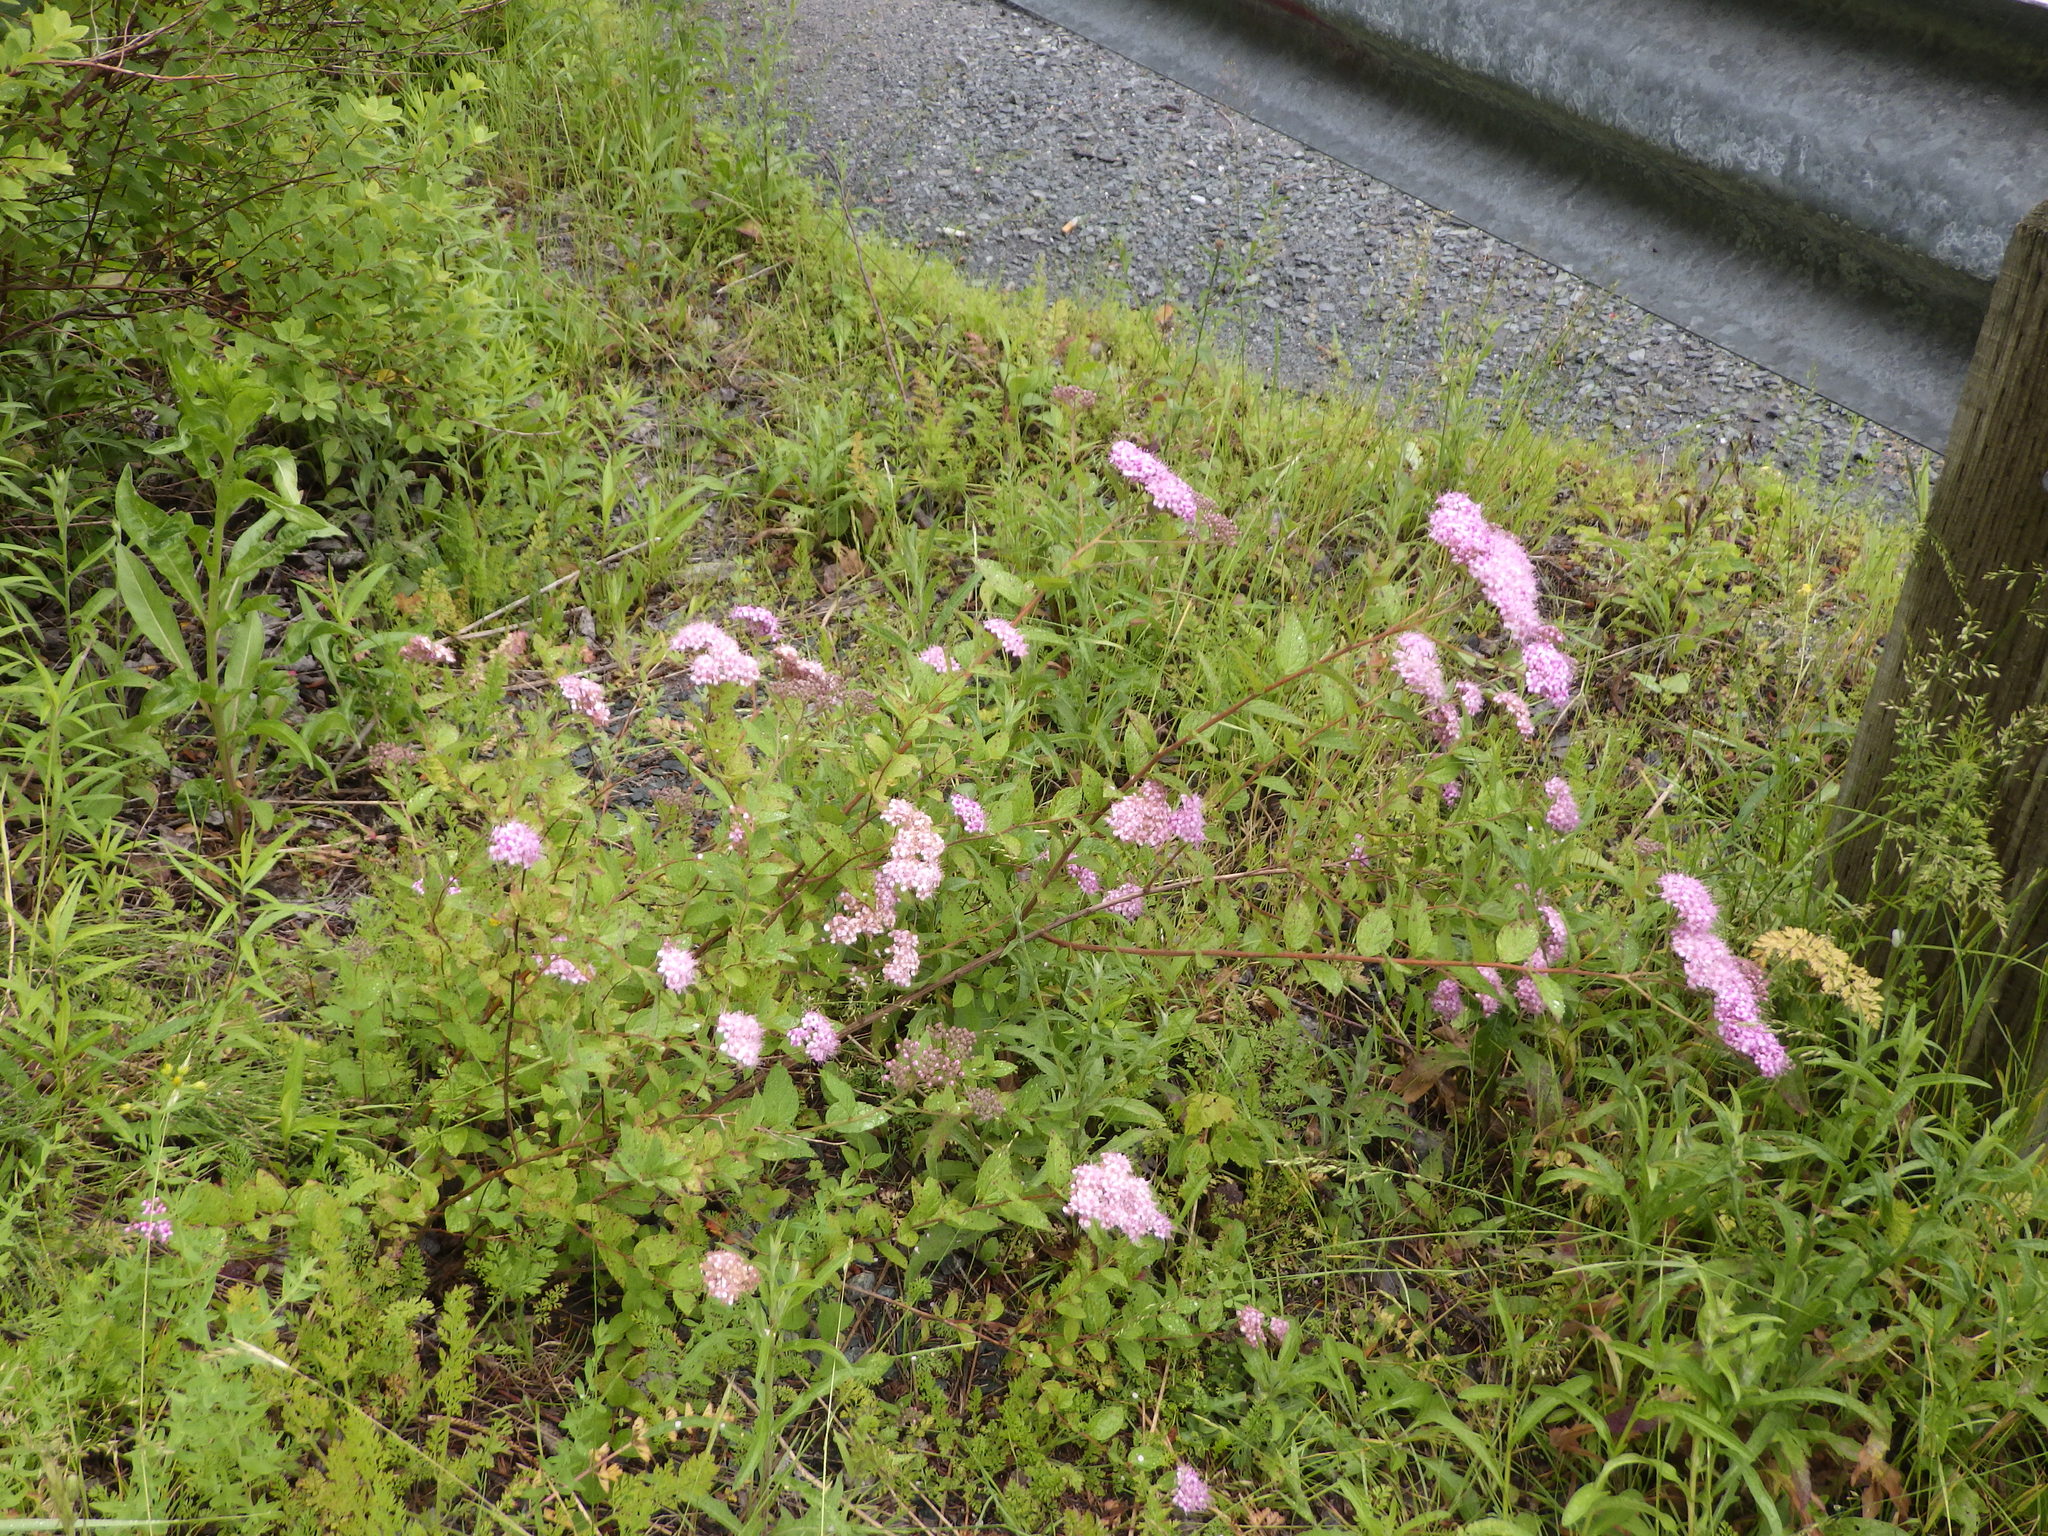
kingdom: Plantae
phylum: Tracheophyta
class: Magnoliopsida
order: Rosales
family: Rosaceae
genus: Spiraea
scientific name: Spiraea japonica
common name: Japanese spiraea
